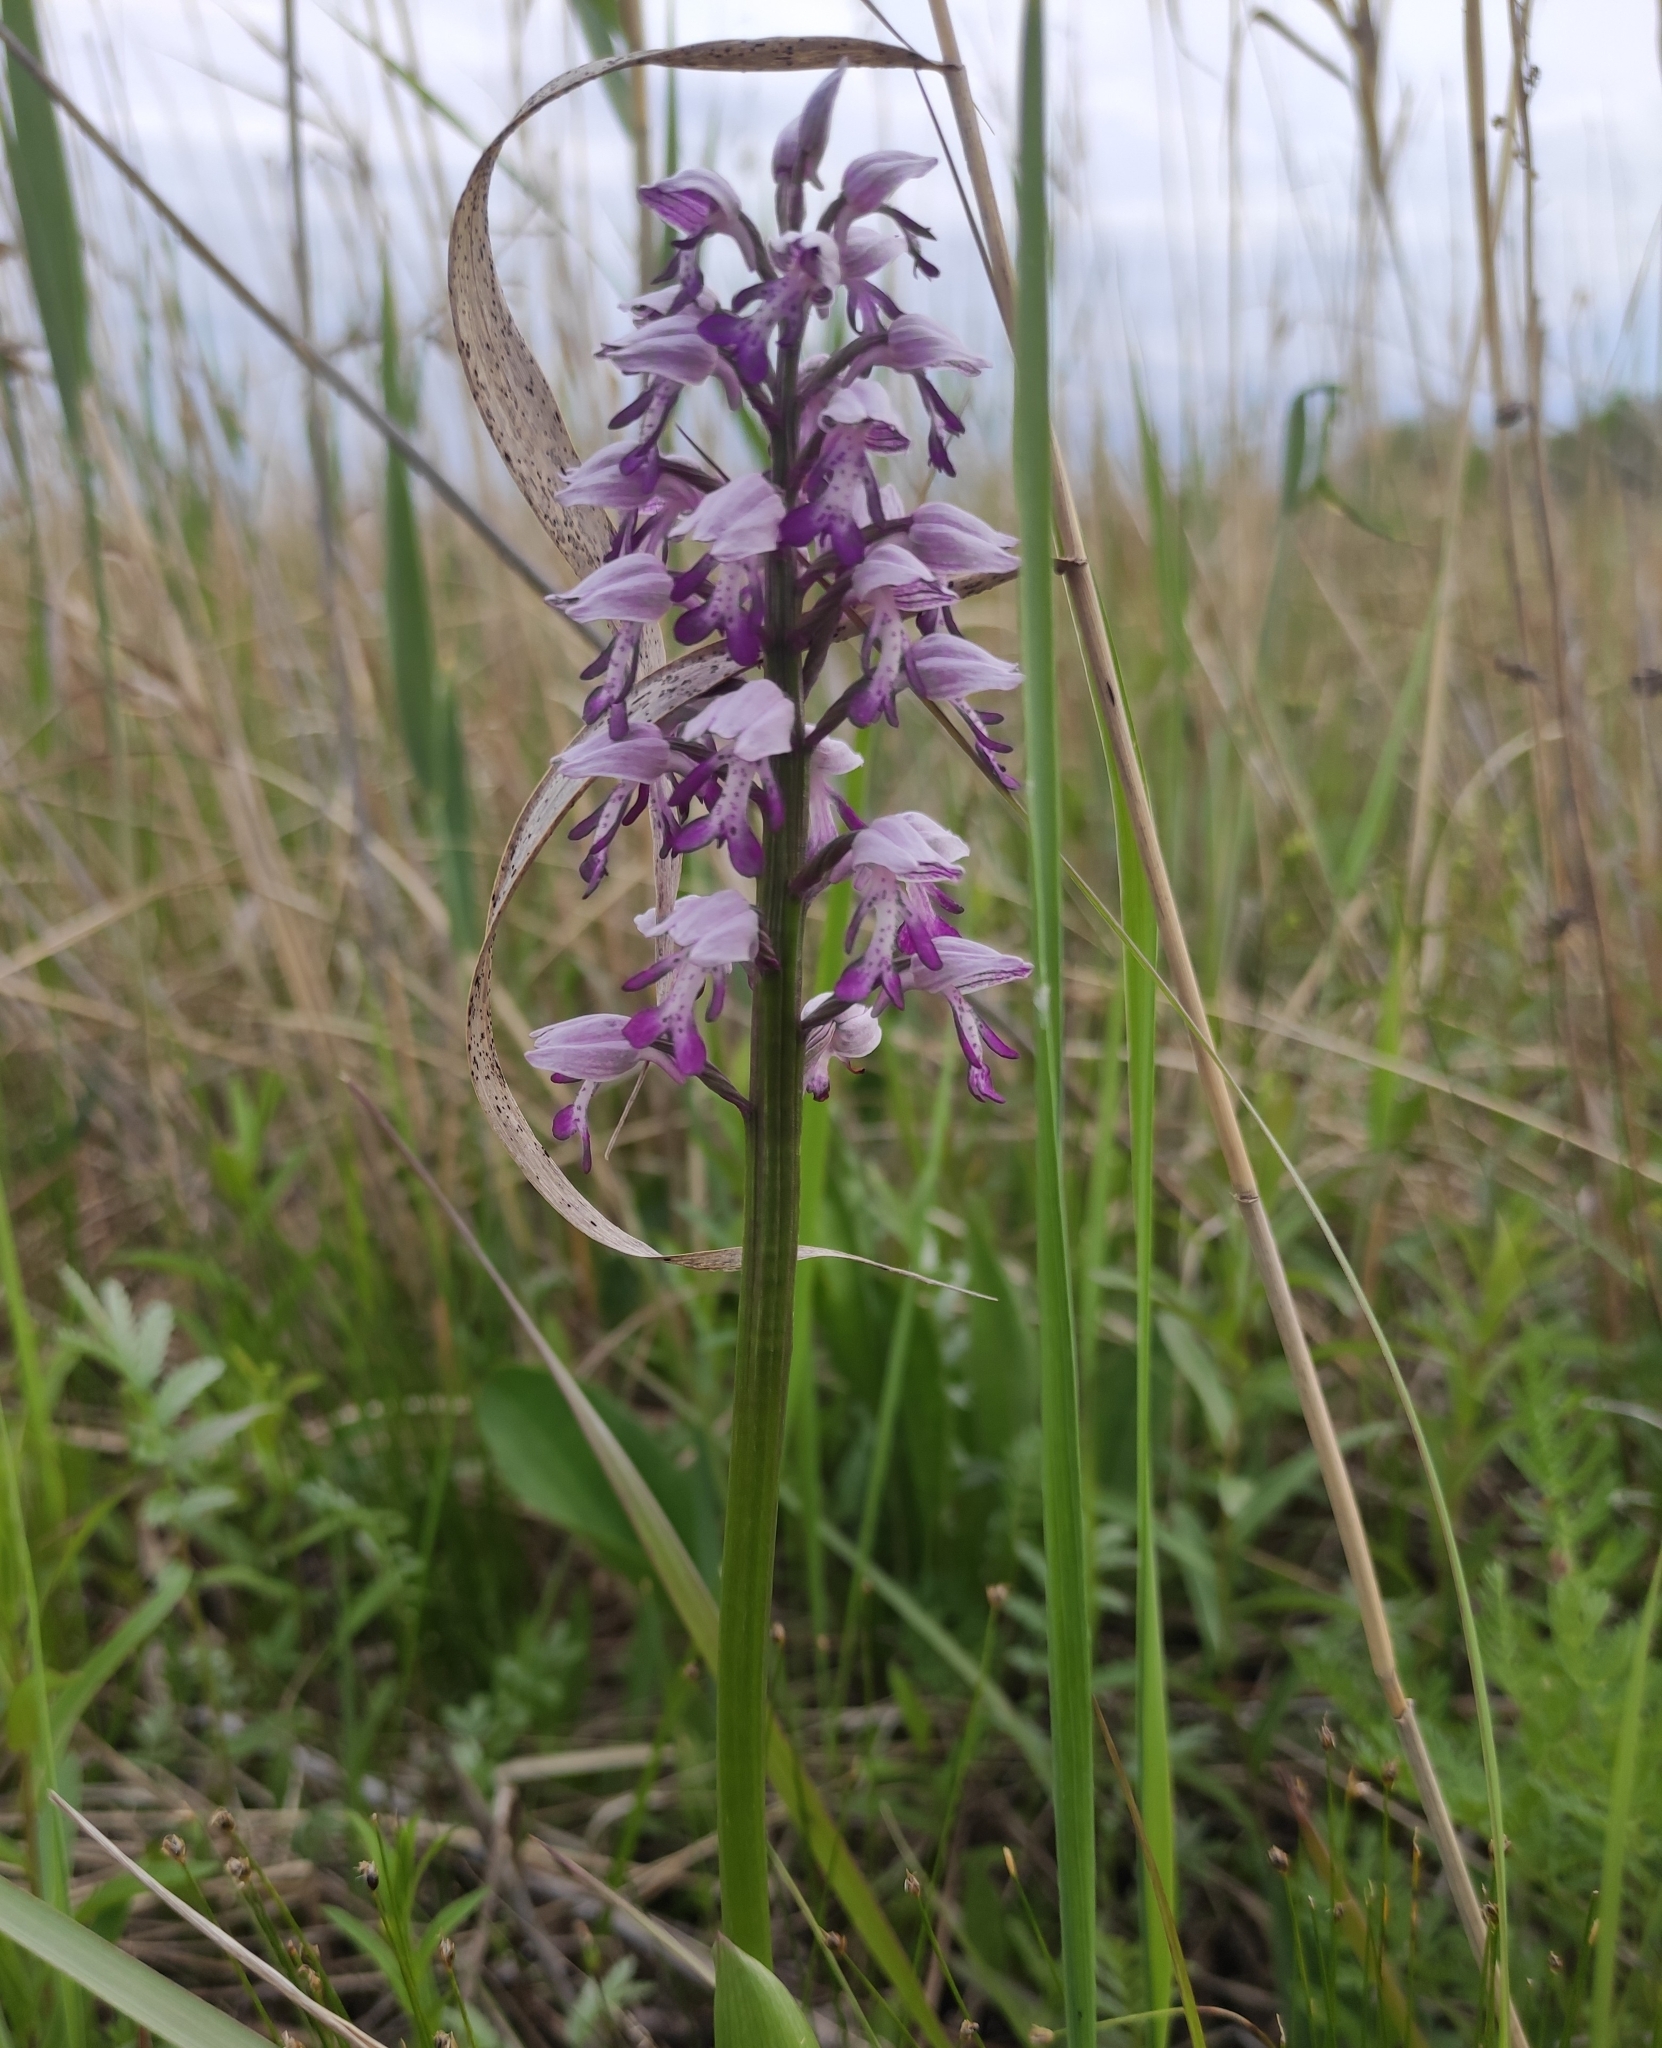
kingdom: Plantae
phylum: Tracheophyta
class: Liliopsida
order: Asparagales
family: Orchidaceae
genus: Orchis
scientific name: Orchis militaris
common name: Military orchid
